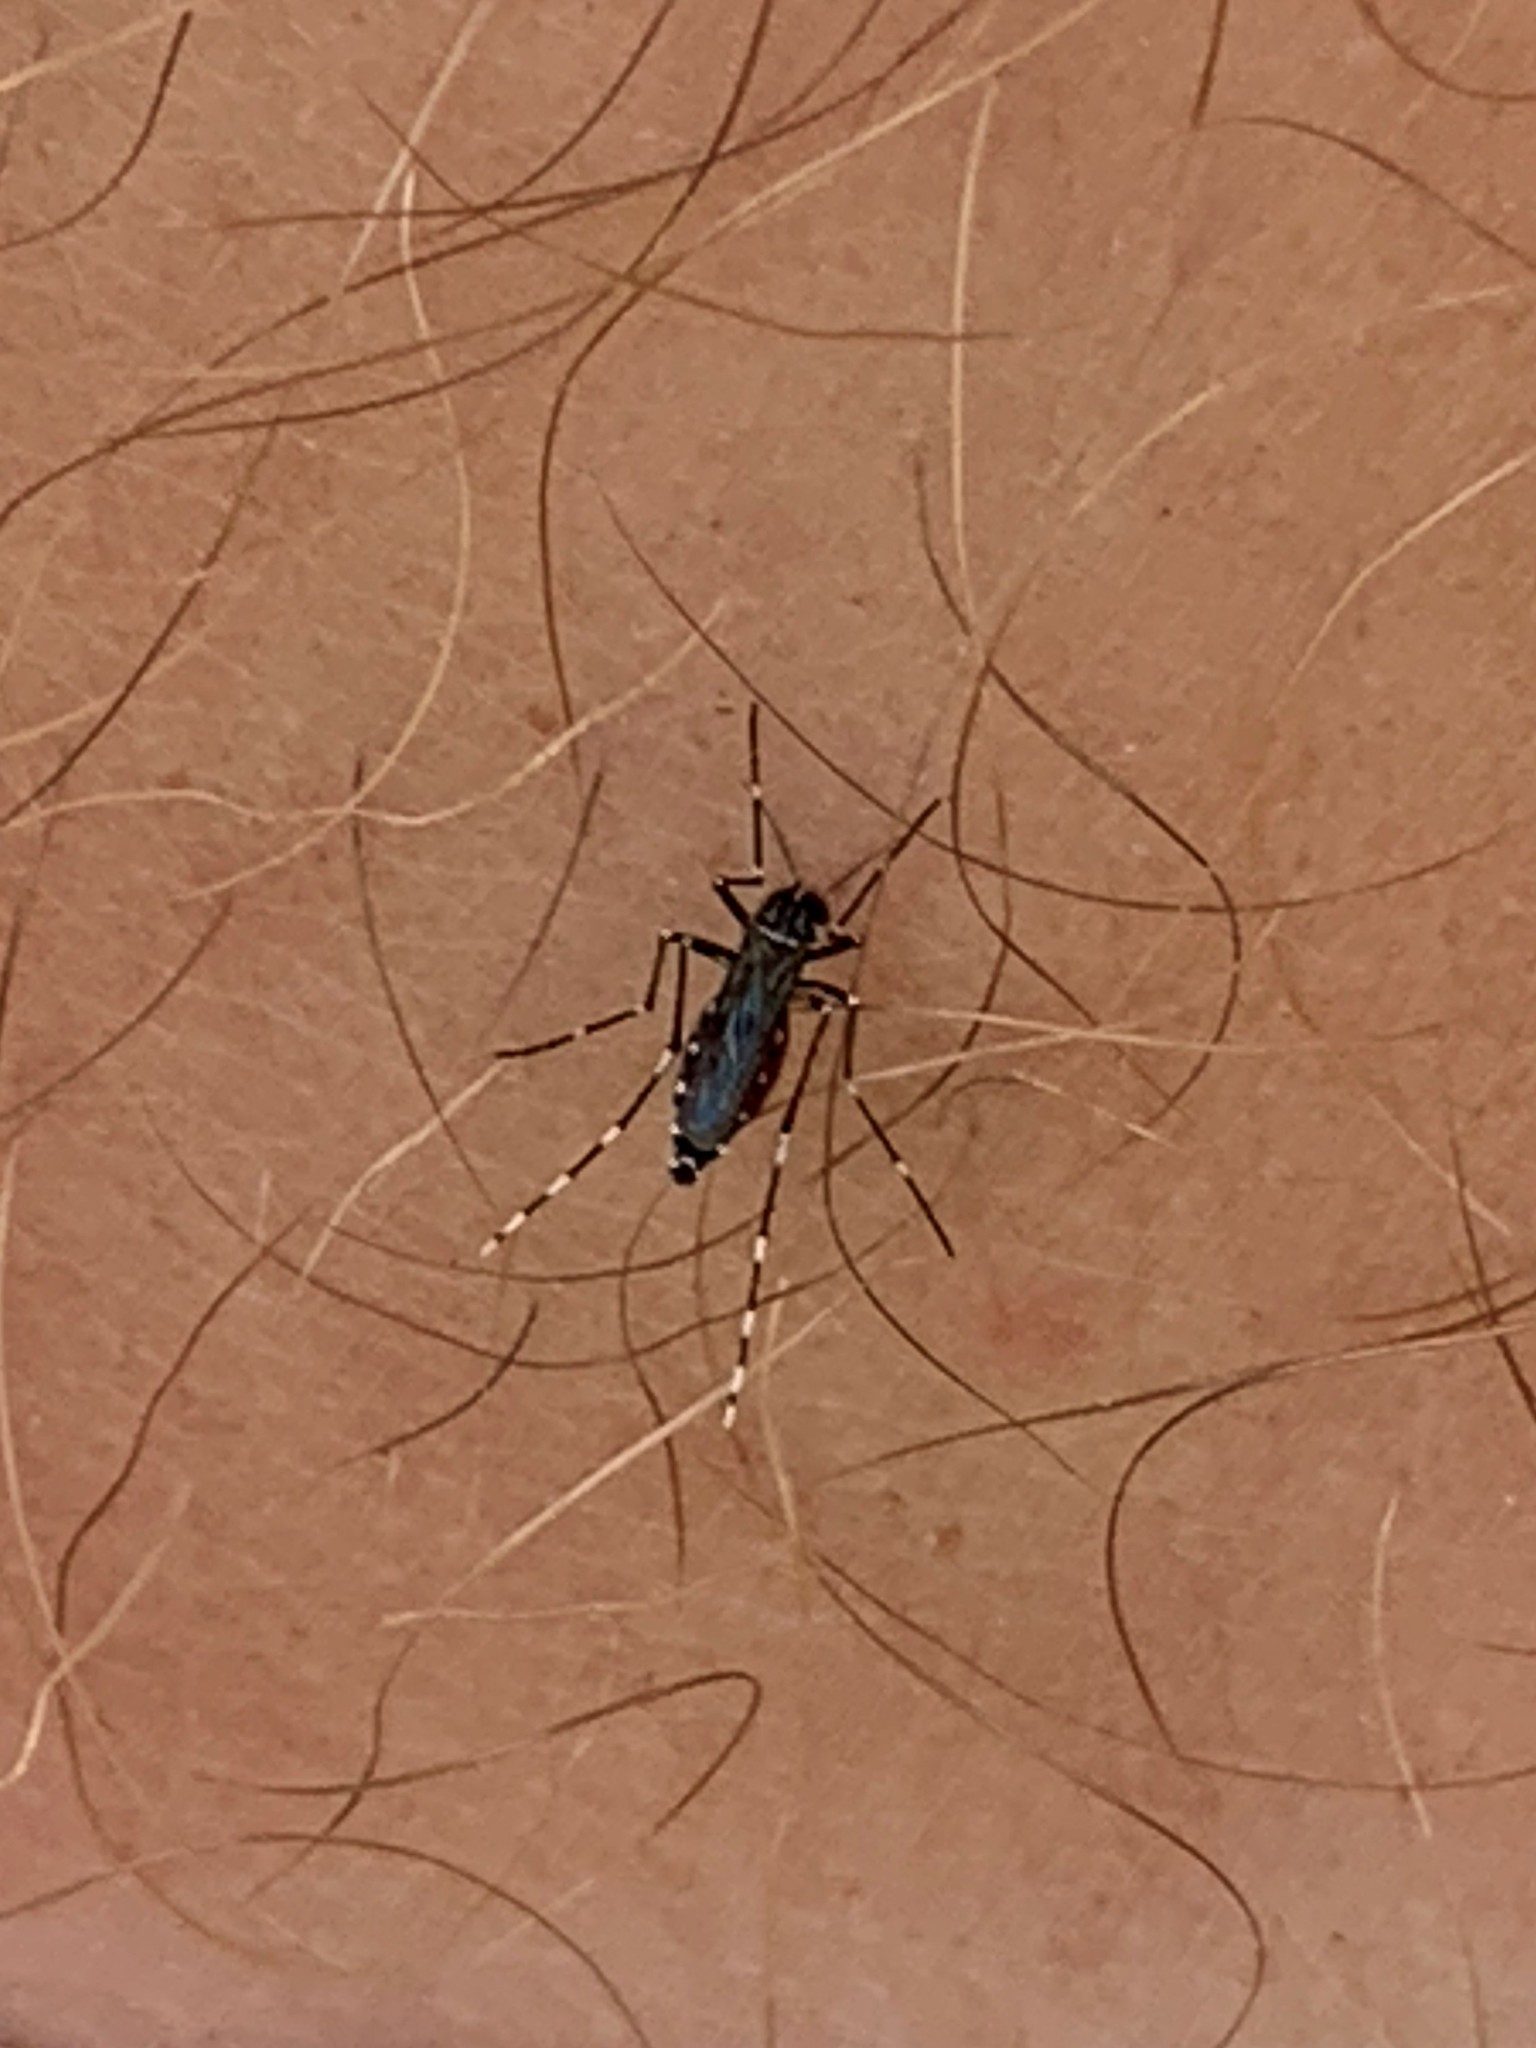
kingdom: Animalia
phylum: Arthropoda
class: Insecta
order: Diptera
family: Culicidae
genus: Aedes
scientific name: Aedes albopictus
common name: Tiger mosquito
